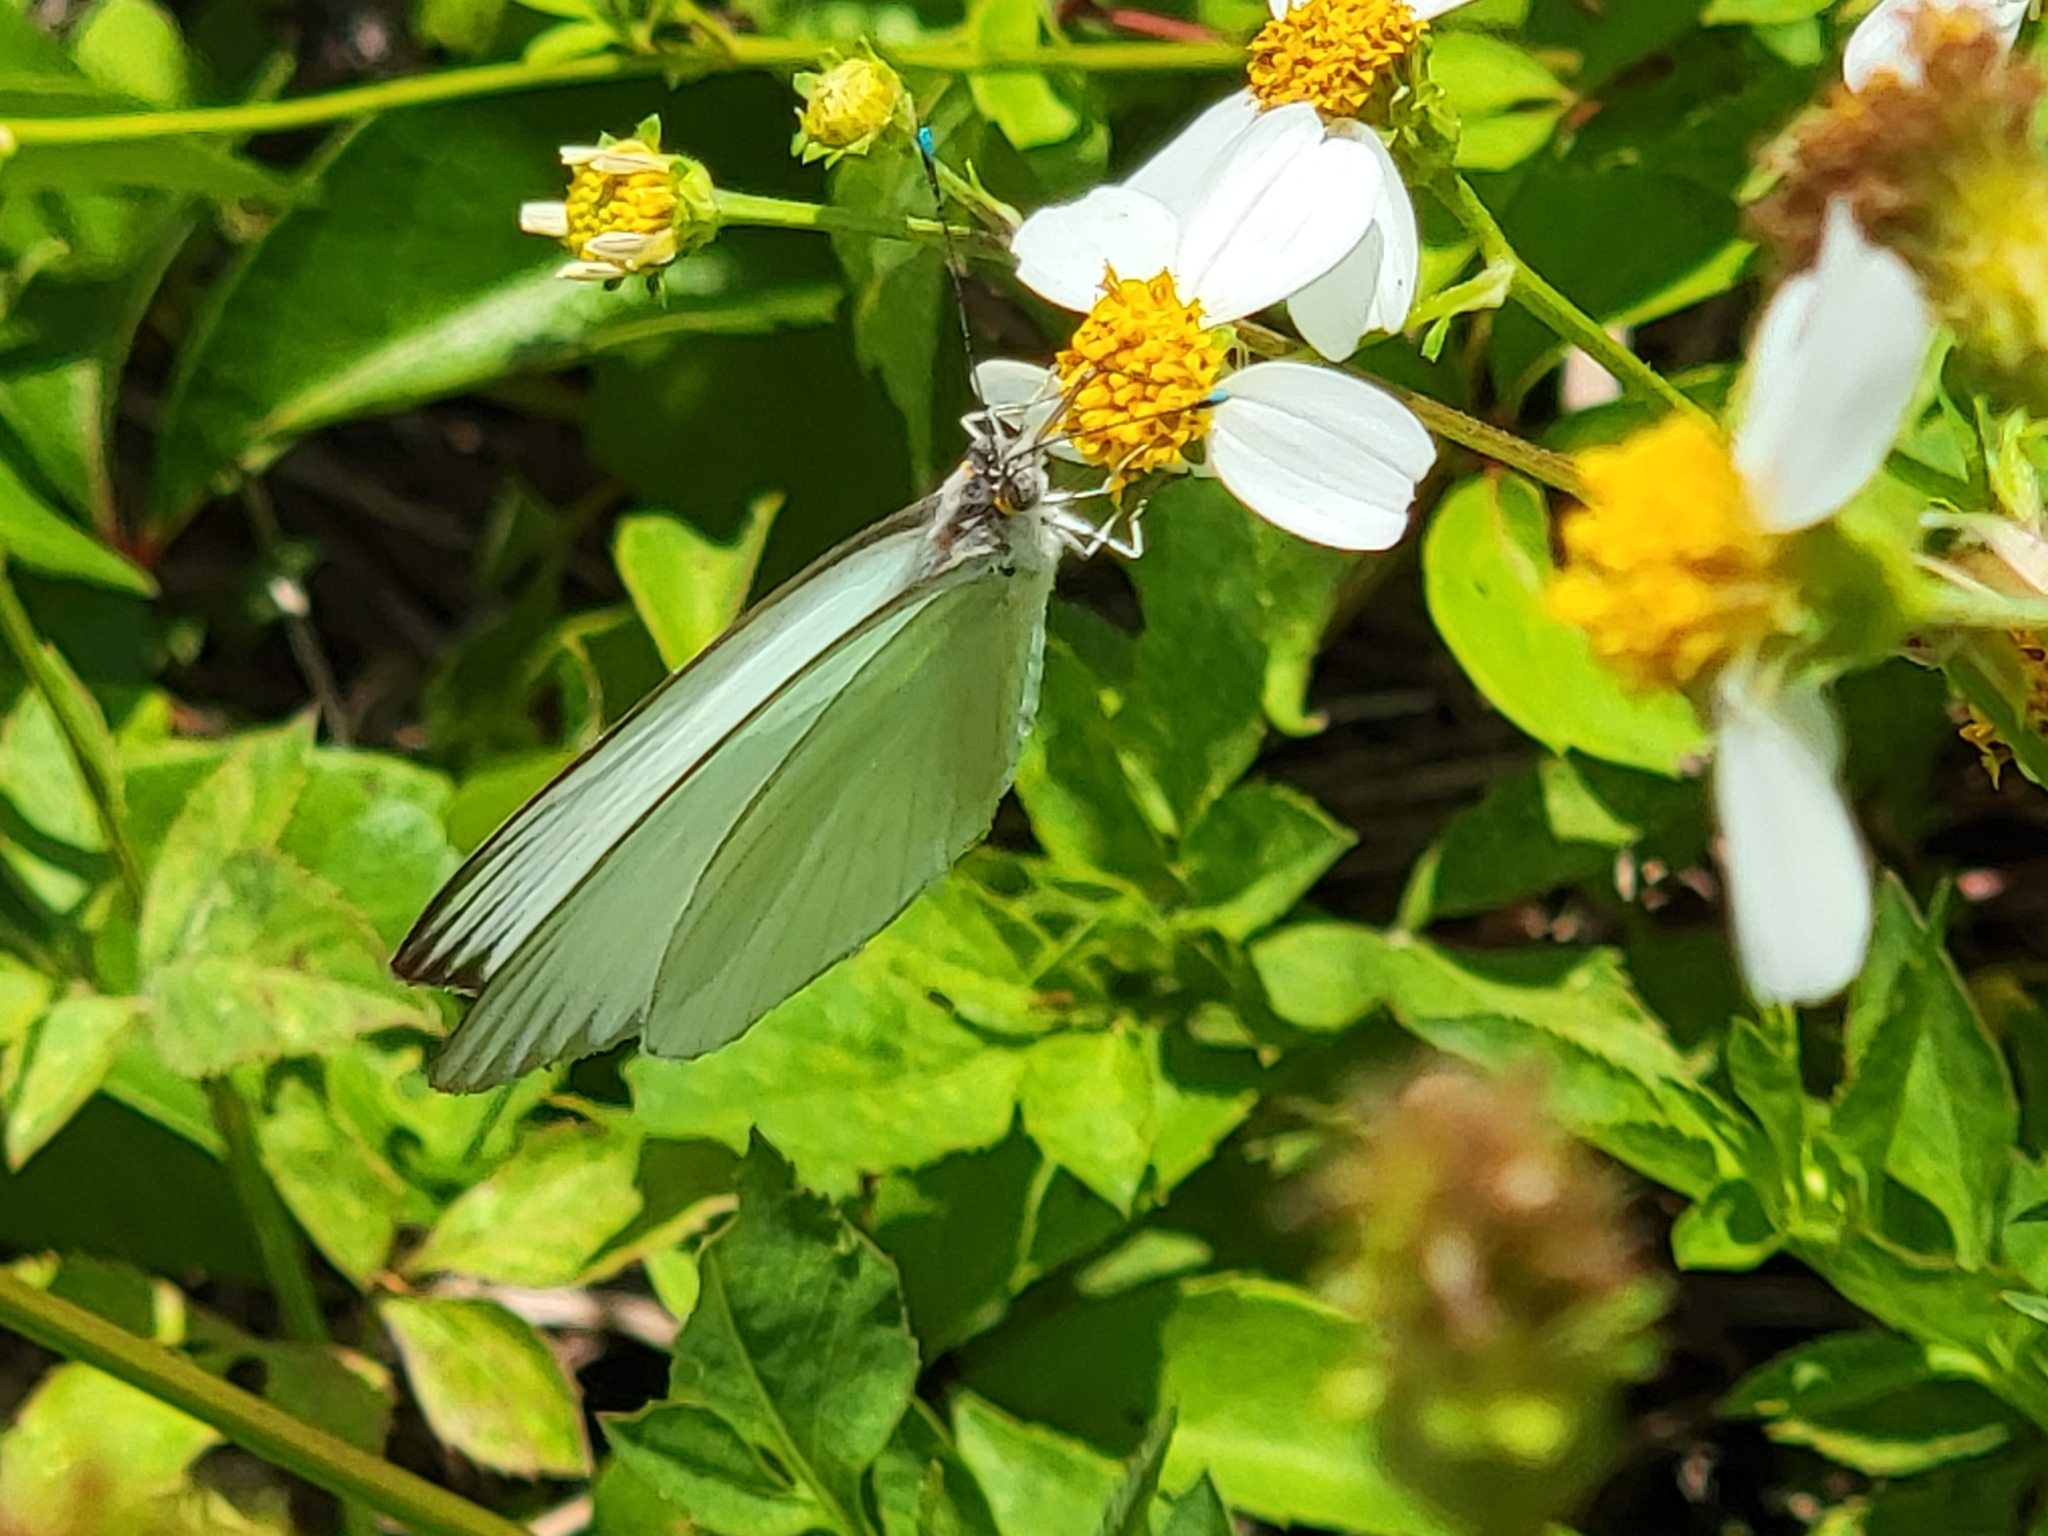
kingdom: Animalia
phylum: Arthropoda
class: Insecta
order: Lepidoptera
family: Pieridae
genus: Ascia
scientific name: Ascia monuste
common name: Great southern white
